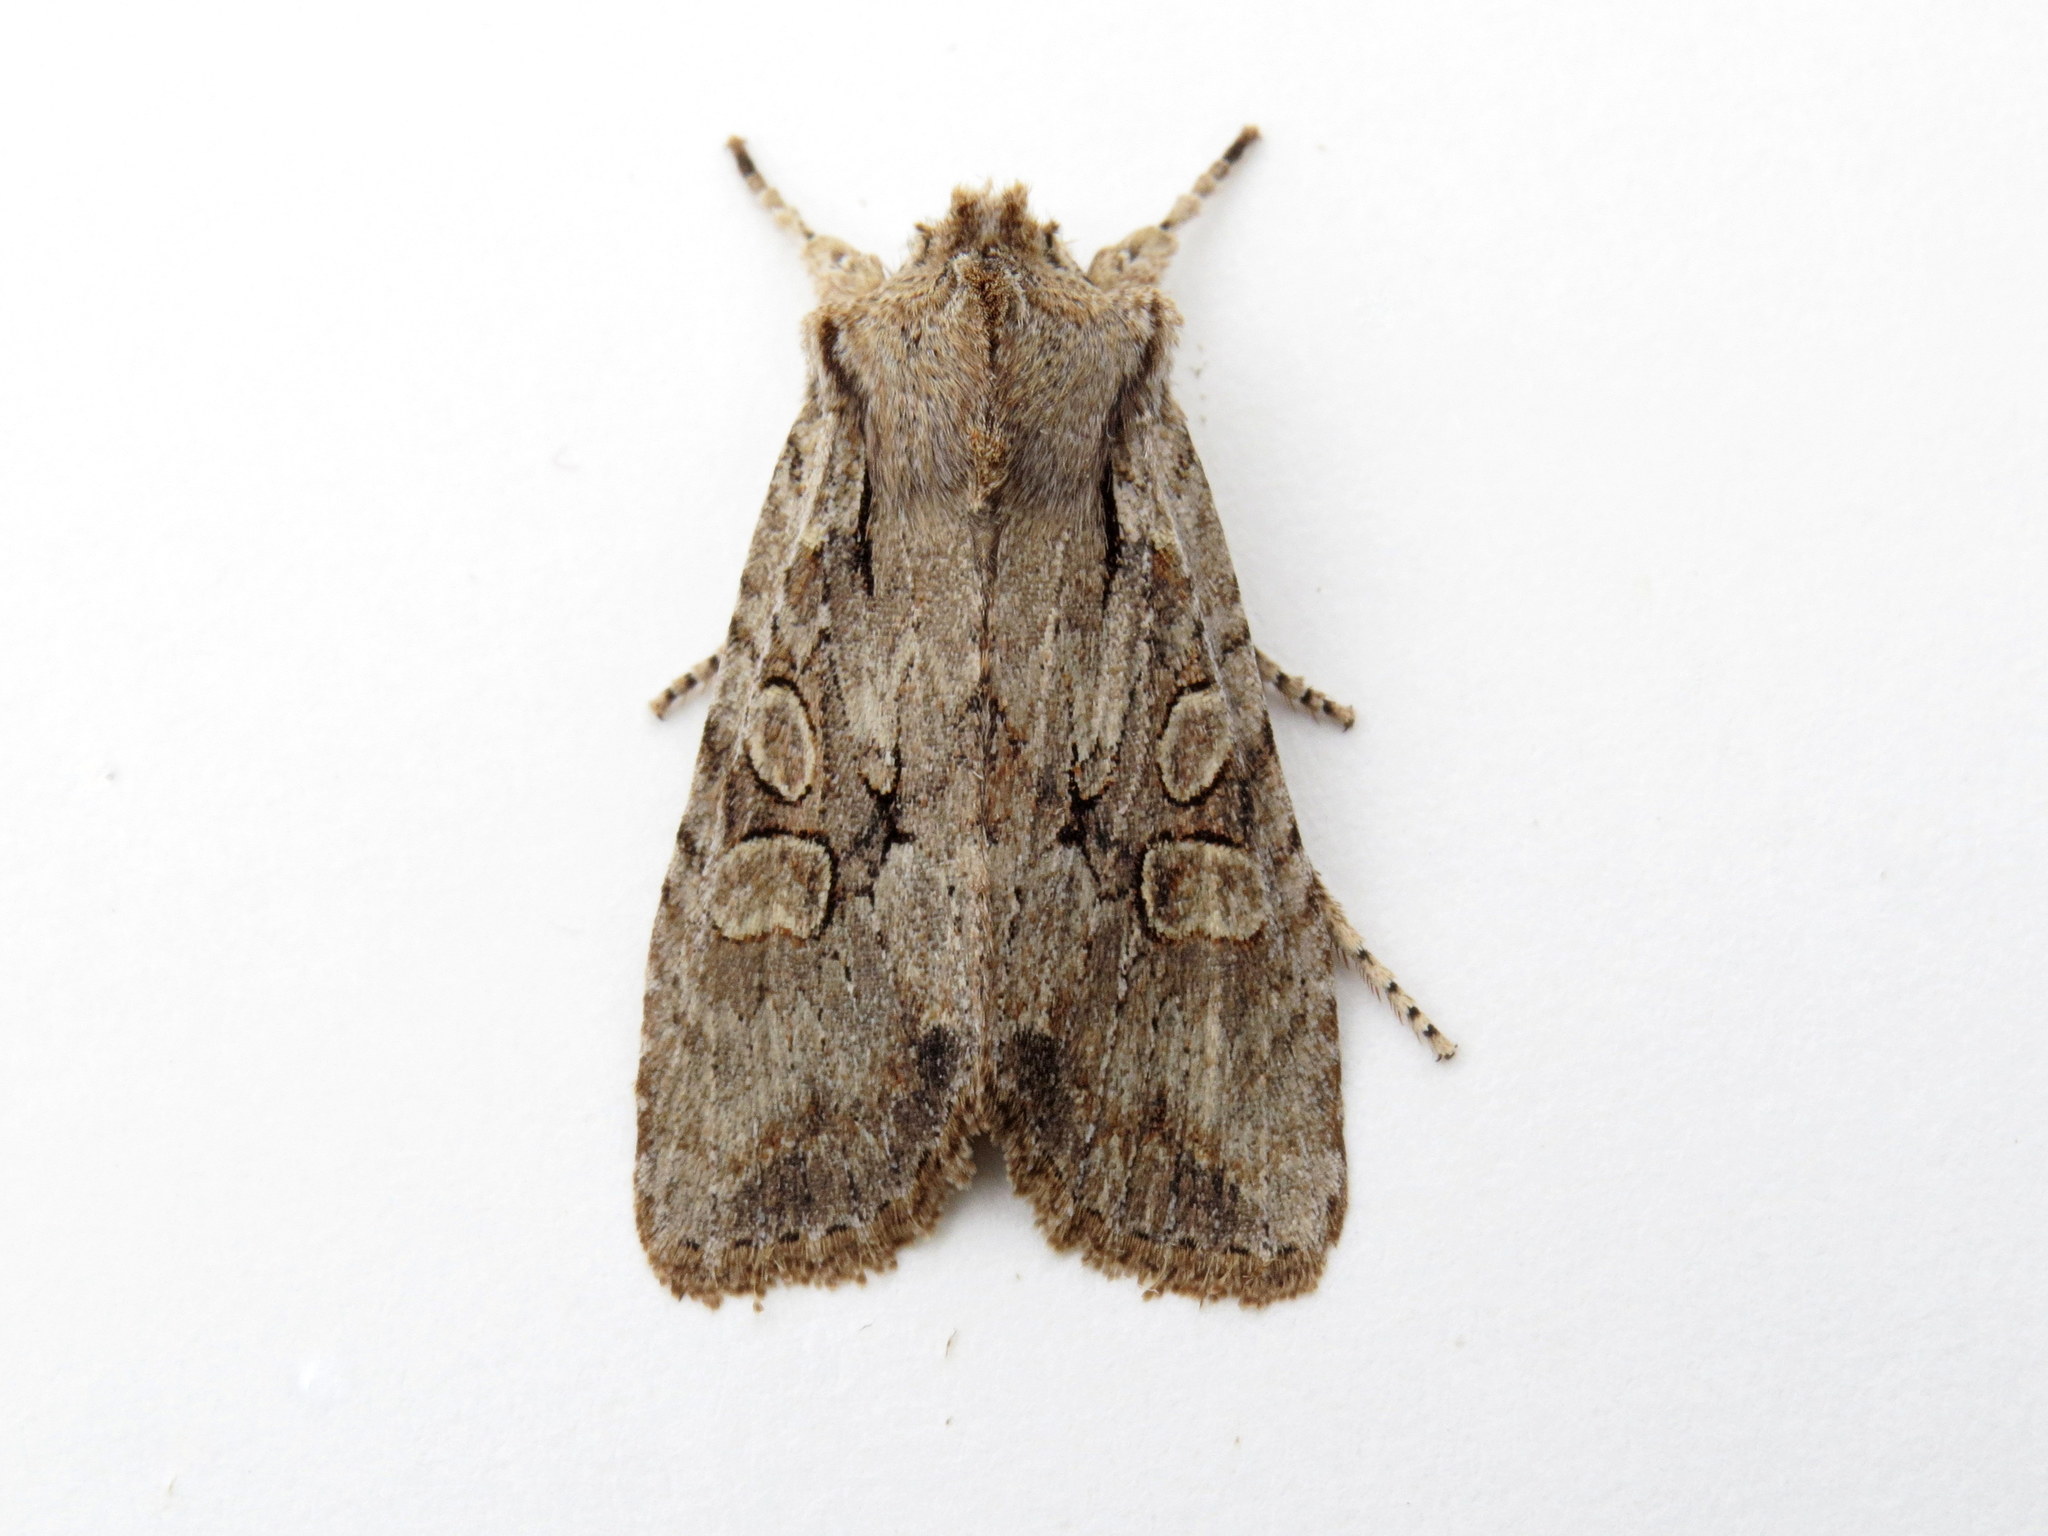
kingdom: Animalia
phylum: Arthropoda
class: Insecta
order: Lepidoptera
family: Noctuidae
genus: Lithophane
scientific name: Lithophane disposita
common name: Dashed gray pinion moth
